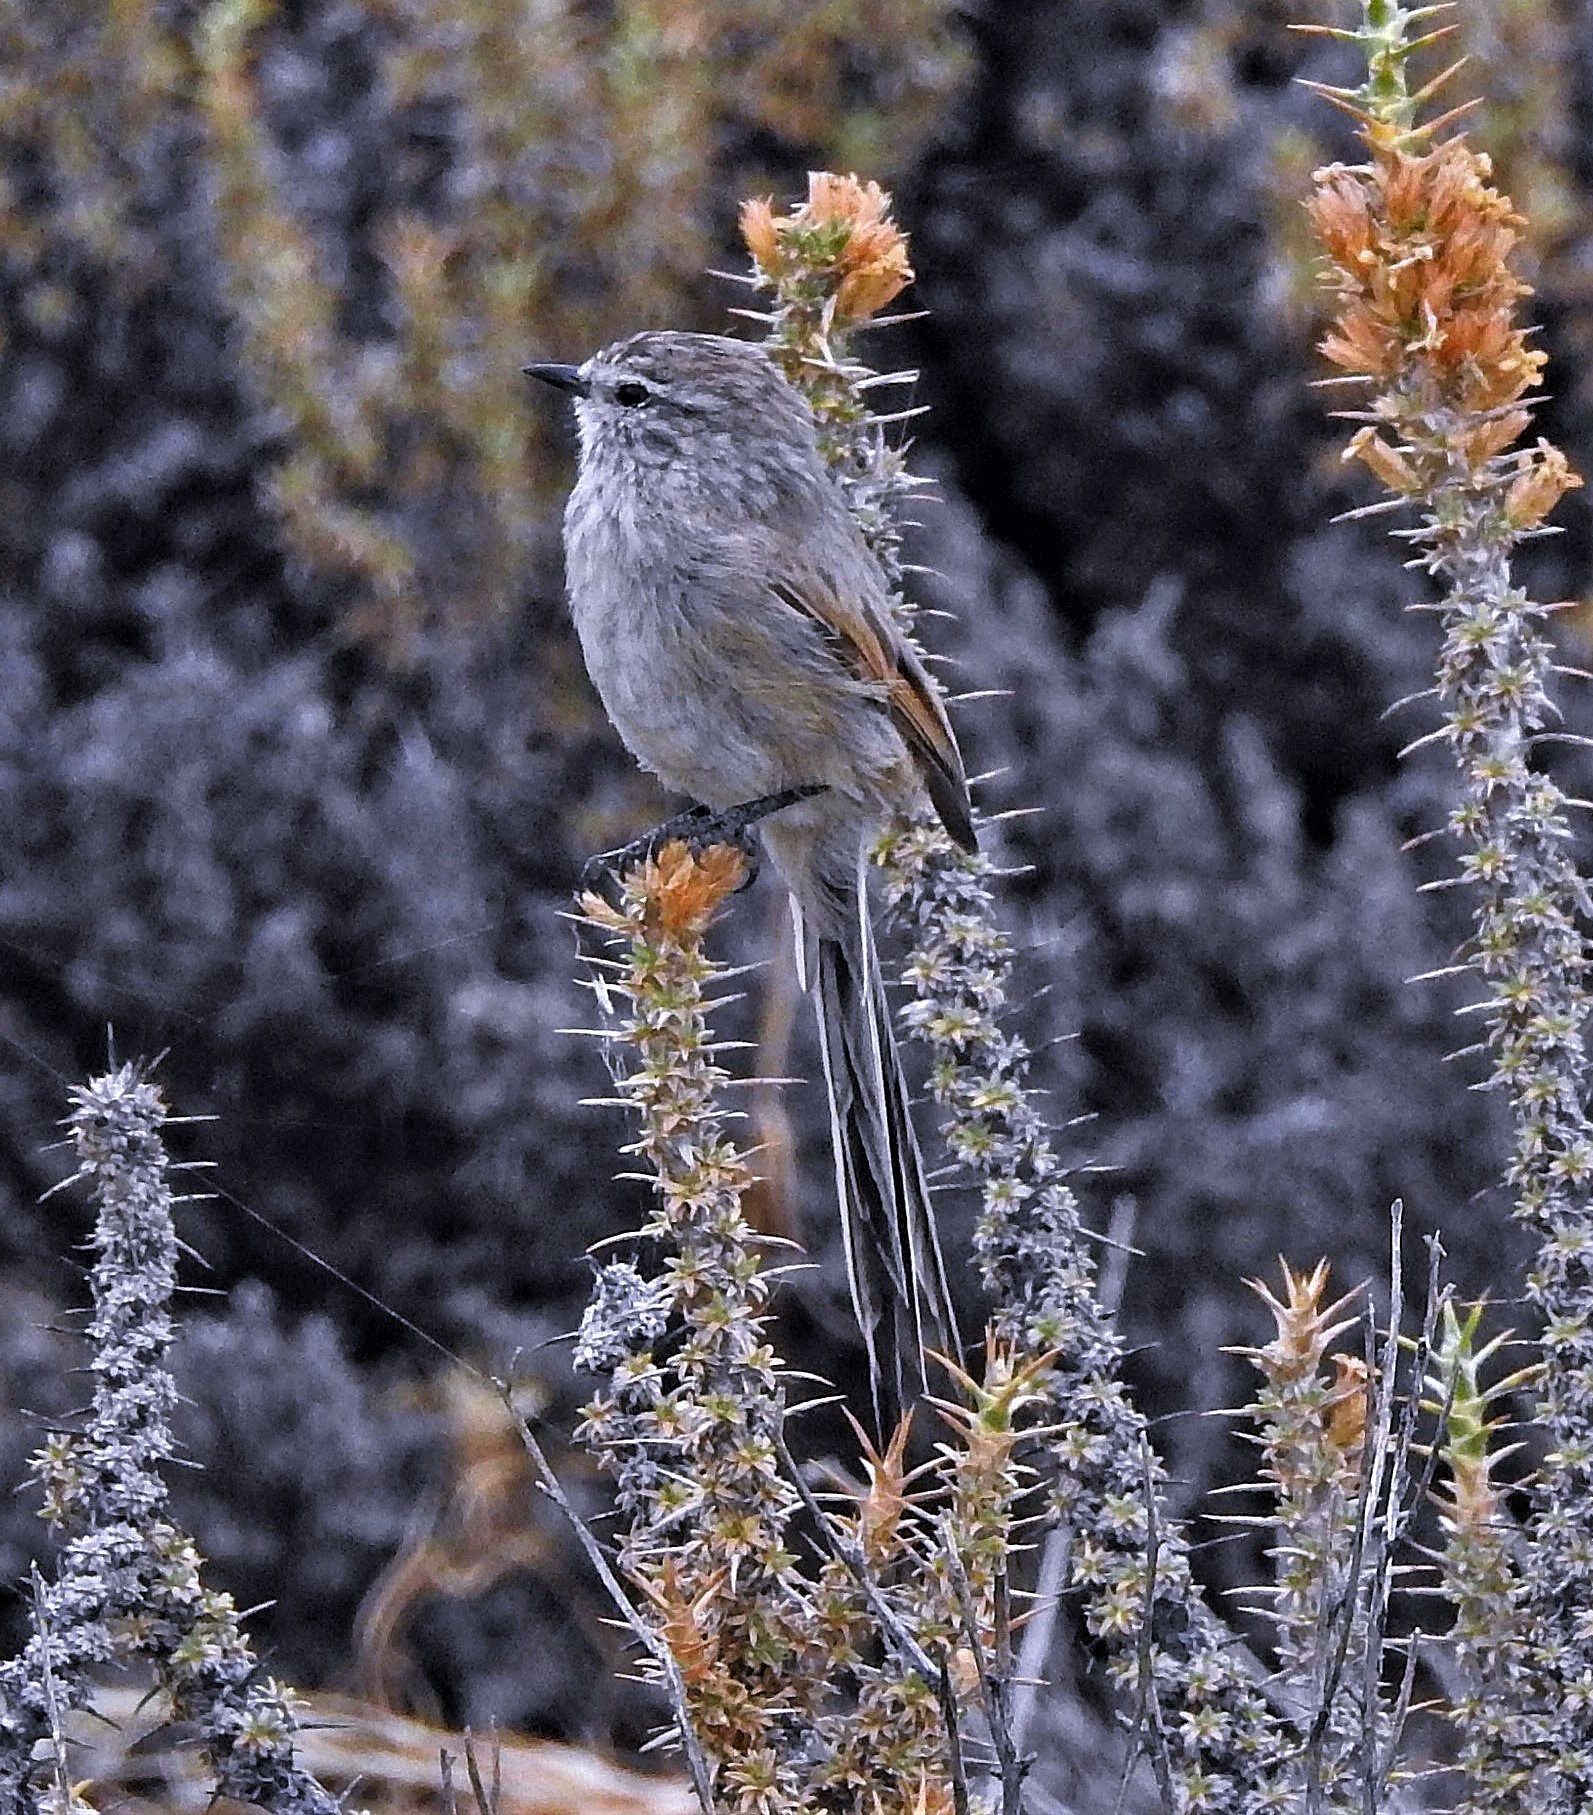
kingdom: Animalia
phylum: Chordata
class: Aves
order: Passeriformes
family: Furnariidae
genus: Leptasthenura
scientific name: Leptasthenura aegithaloides
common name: Plain-mantled tit-spinetail
